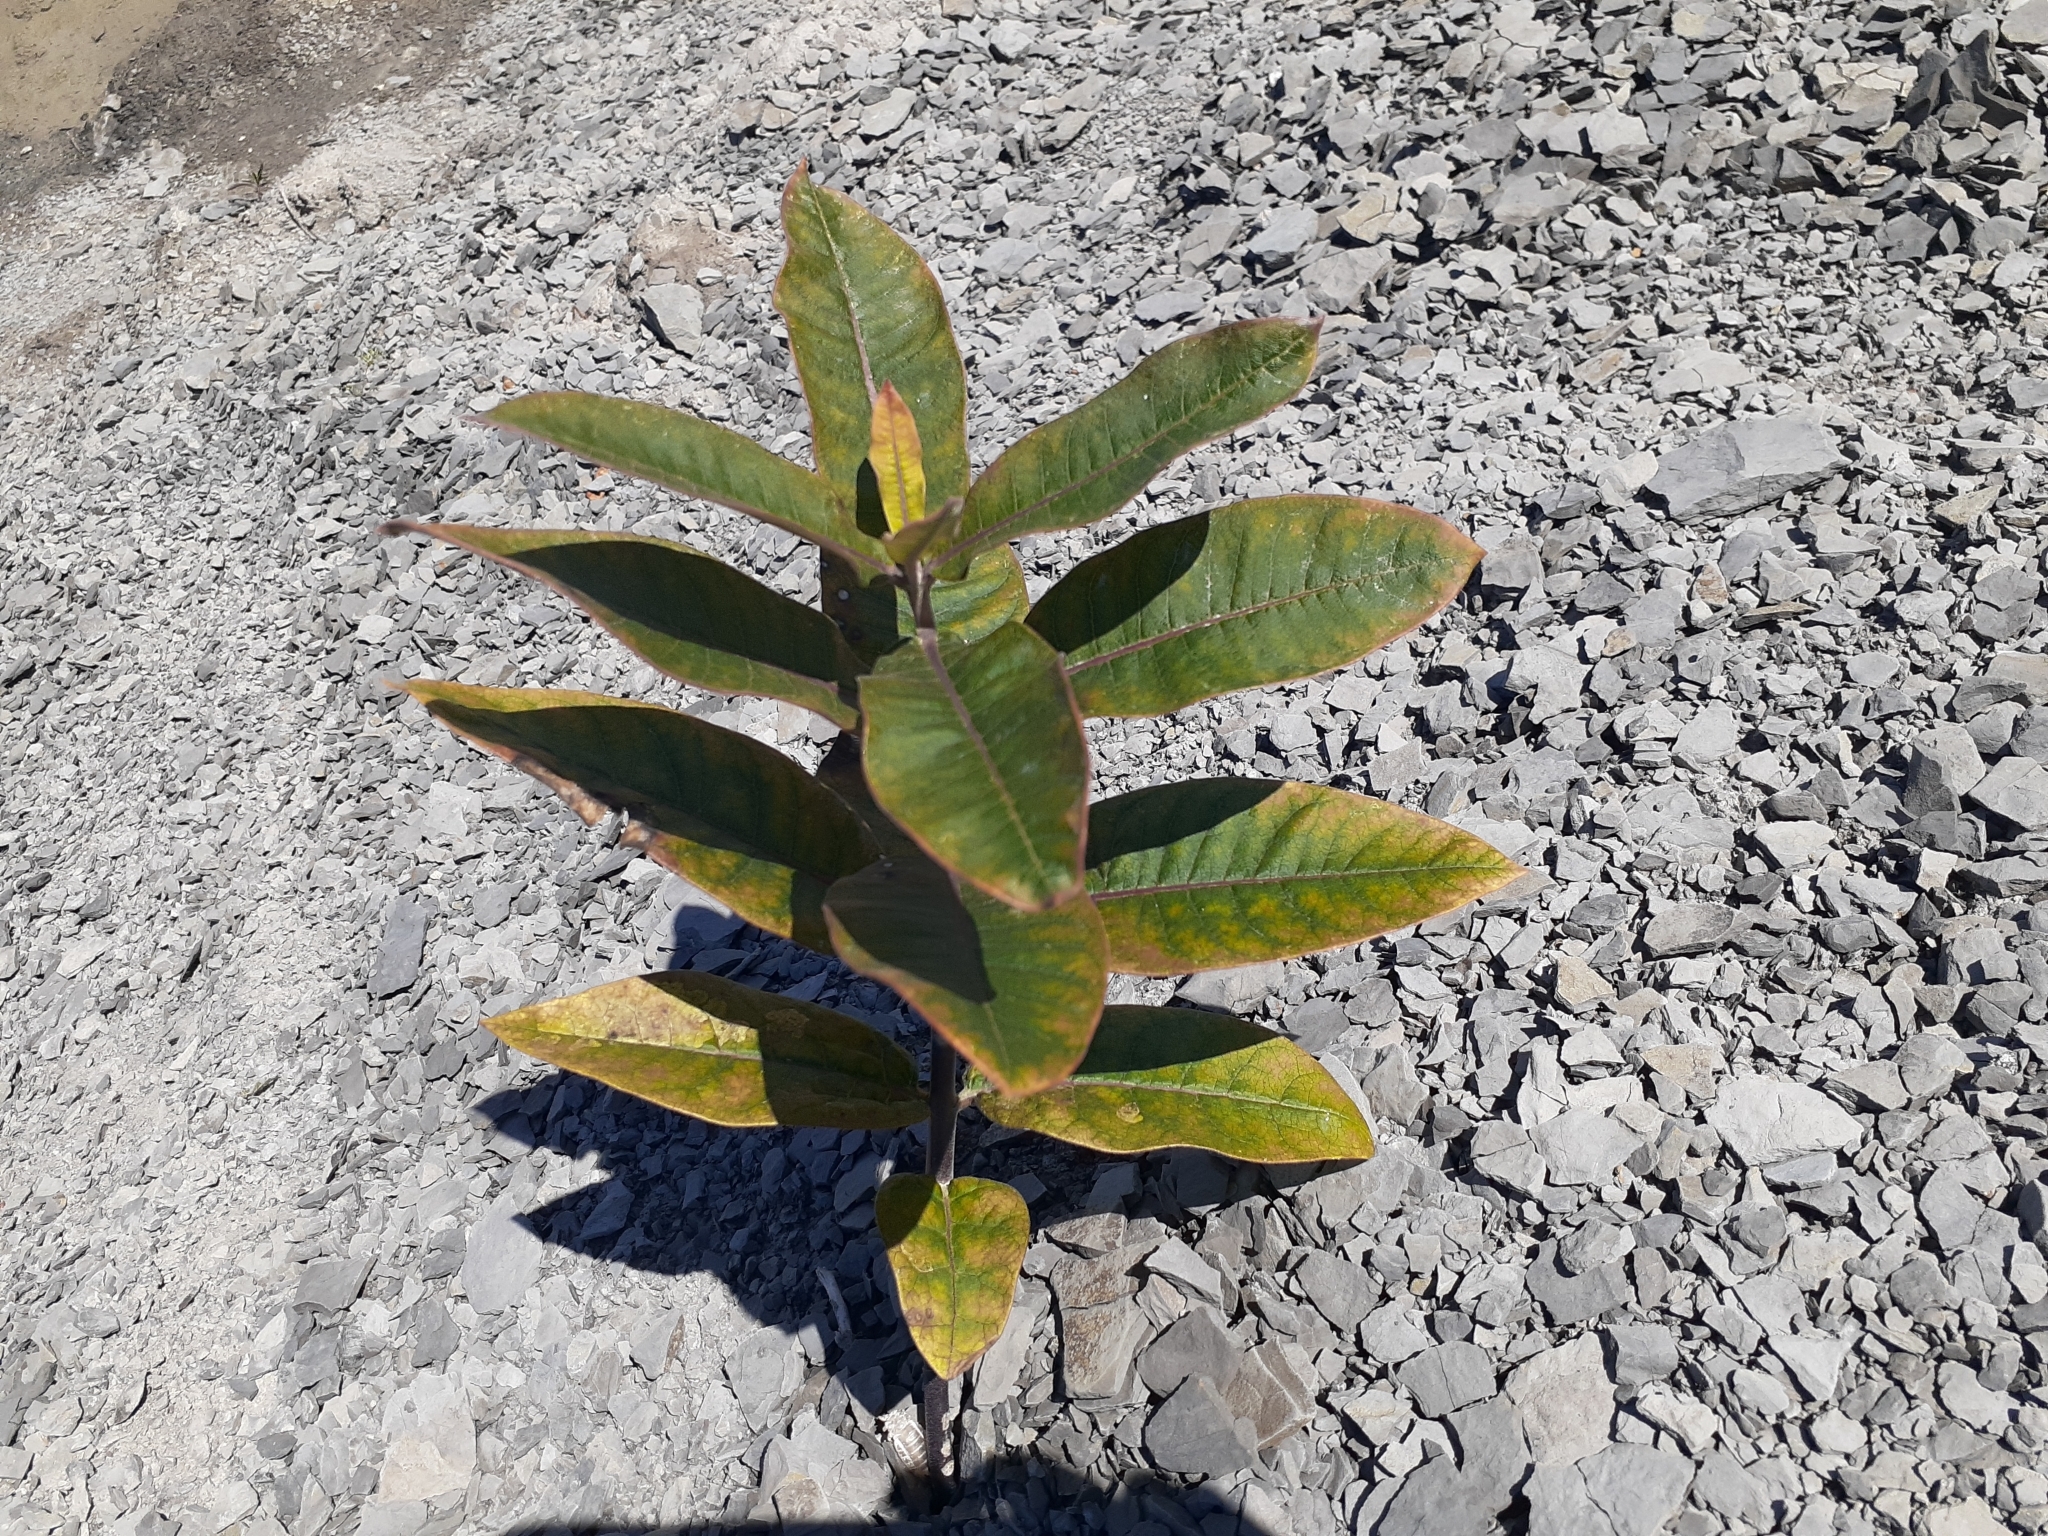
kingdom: Plantae
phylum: Tracheophyta
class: Magnoliopsida
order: Gentianales
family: Apocynaceae
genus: Asclepias
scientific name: Asclepias syriaca
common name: Common milkweed
